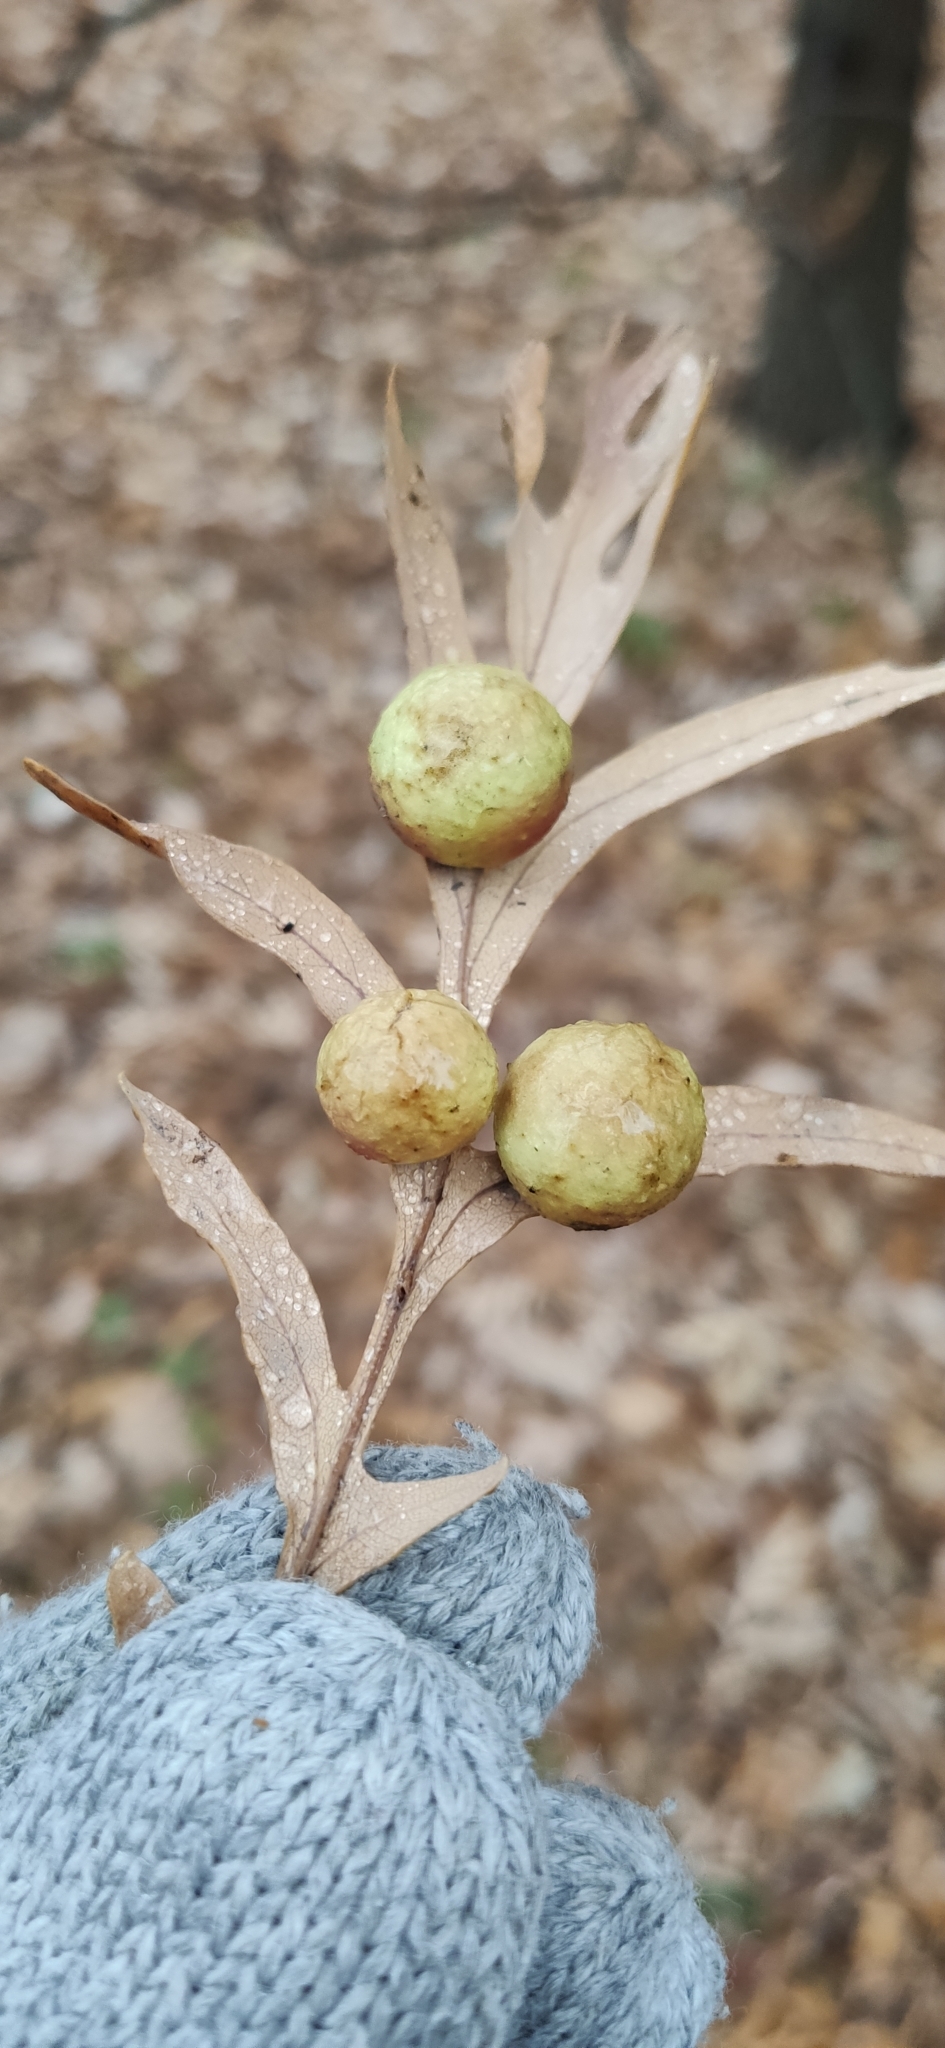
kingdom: Animalia
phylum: Arthropoda
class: Insecta
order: Hymenoptera
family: Cynipidae
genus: Cynips
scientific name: Cynips quercusfolii
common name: Cherry gall
